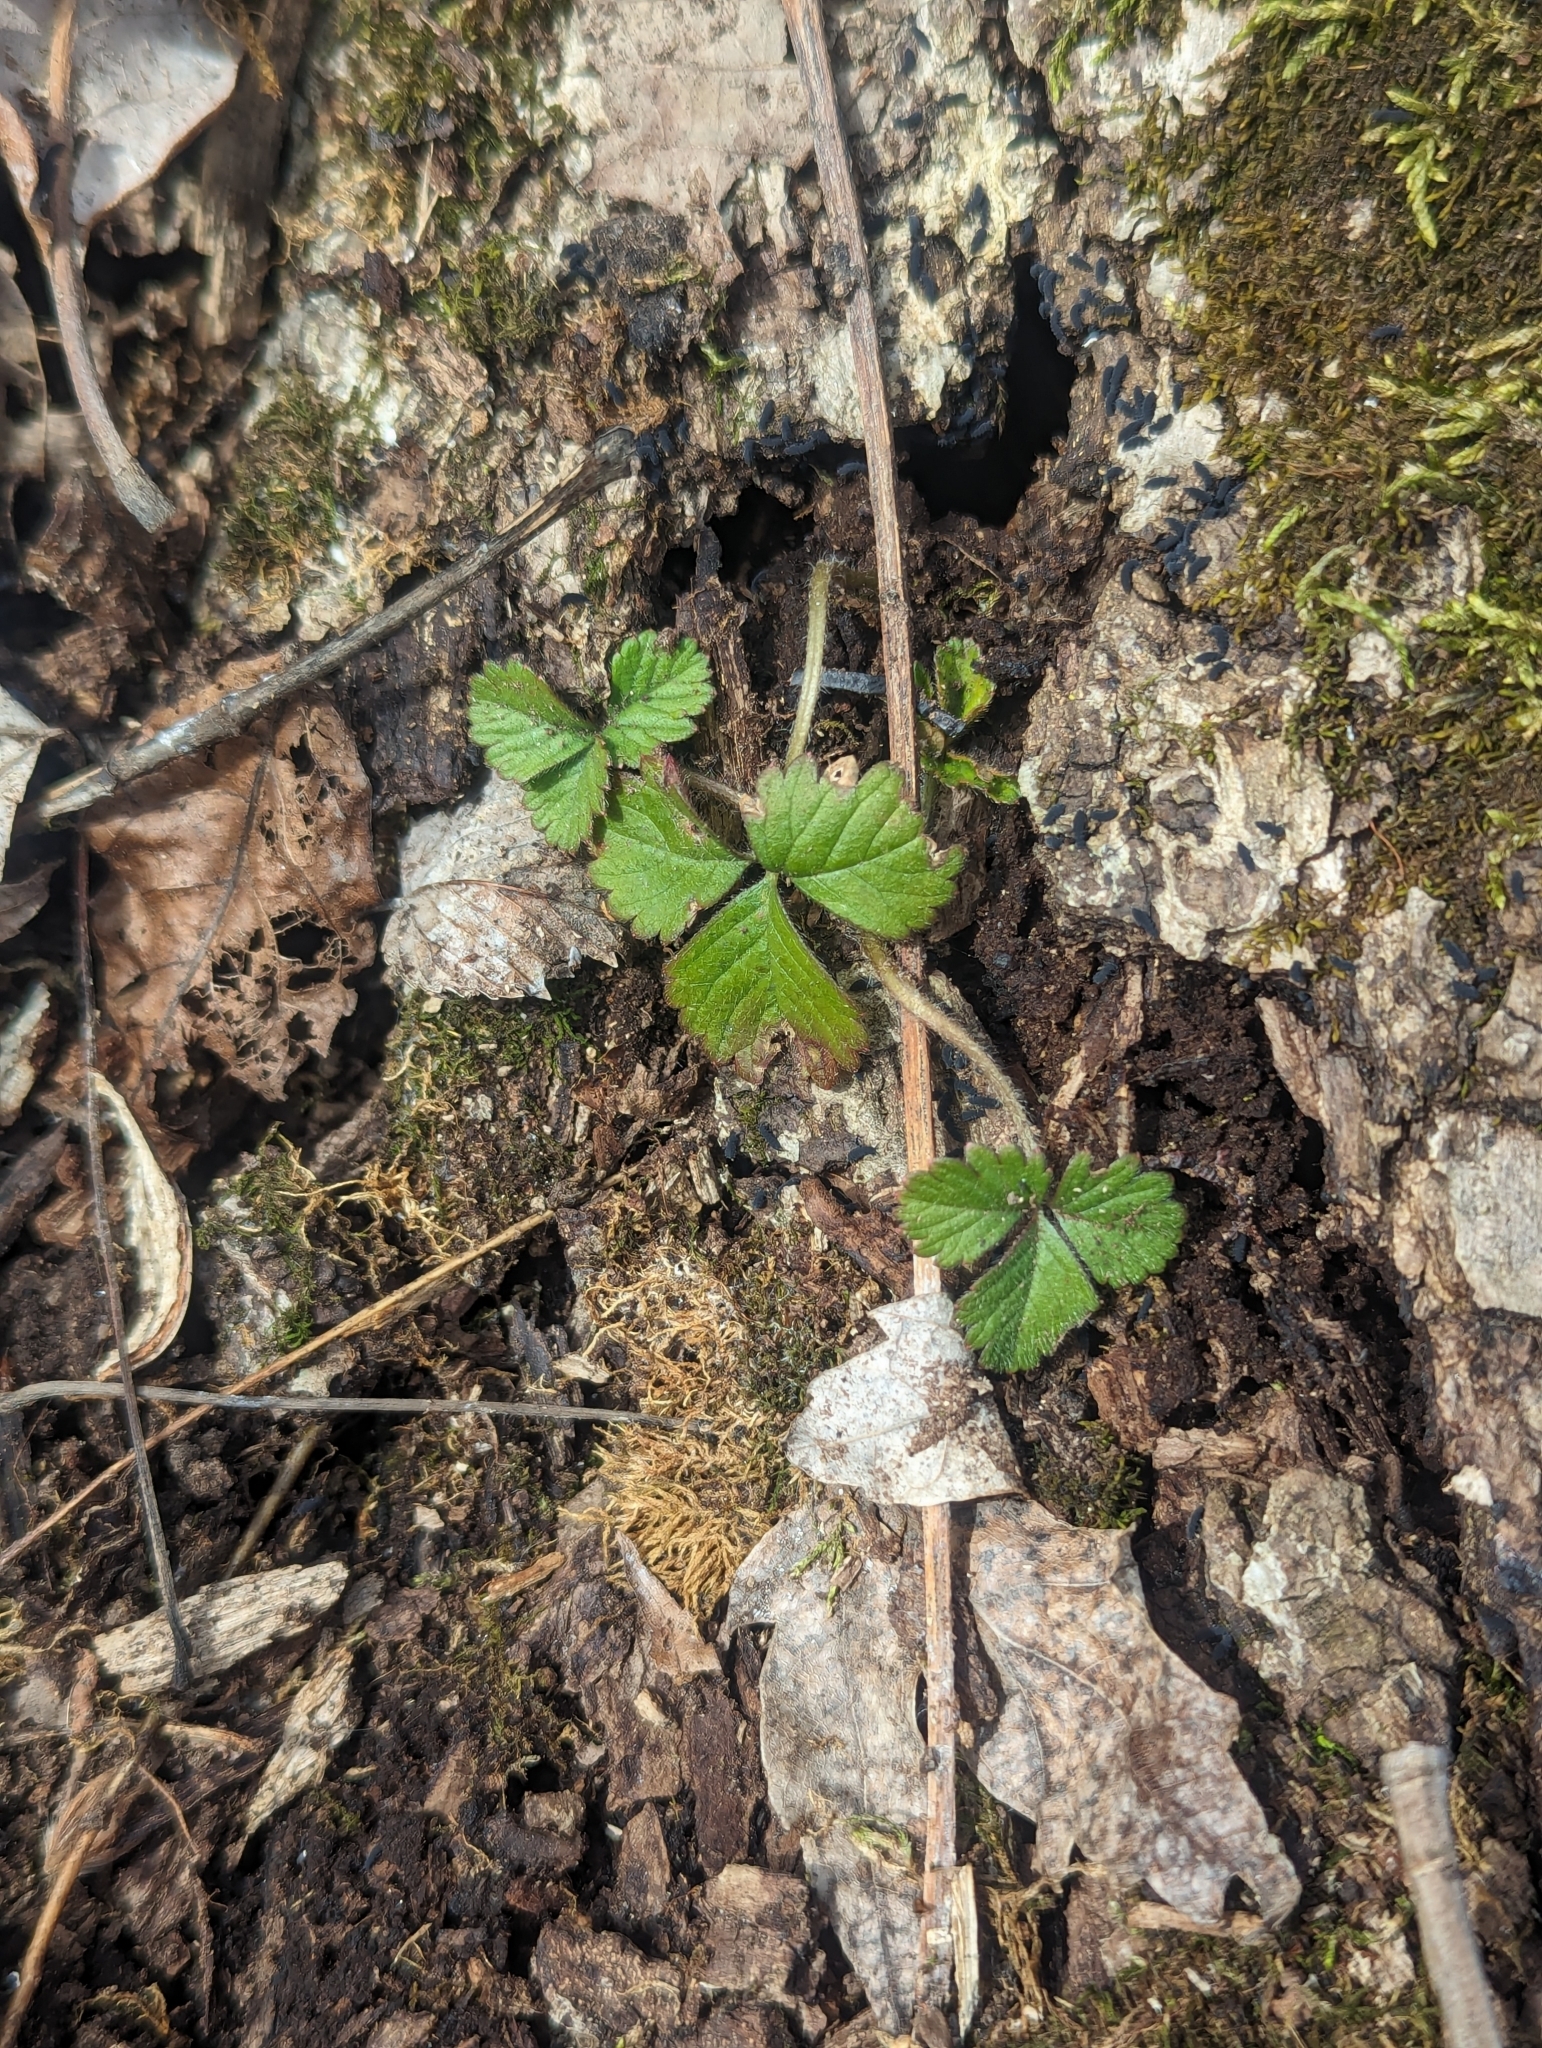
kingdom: Plantae
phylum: Tracheophyta
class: Magnoliopsida
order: Rosales
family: Rosaceae
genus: Potentilla
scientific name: Potentilla indica
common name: Yellow-flowered strawberry
